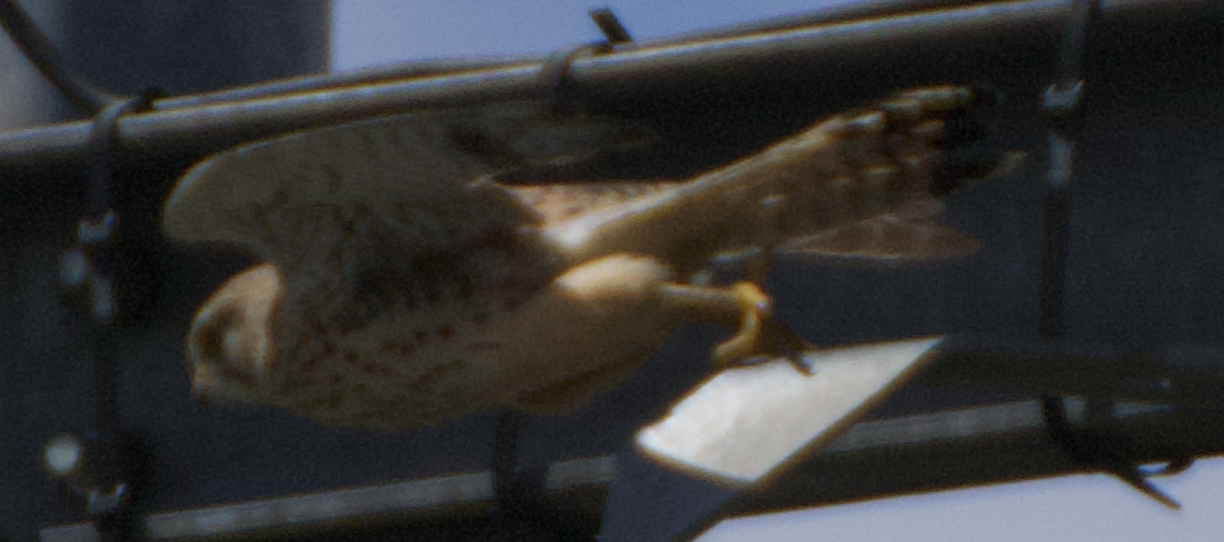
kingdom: Animalia
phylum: Chordata
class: Aves
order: Falconiformes
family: Falconidae
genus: Falco
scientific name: Falco tinnunculus
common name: Common kestrel
